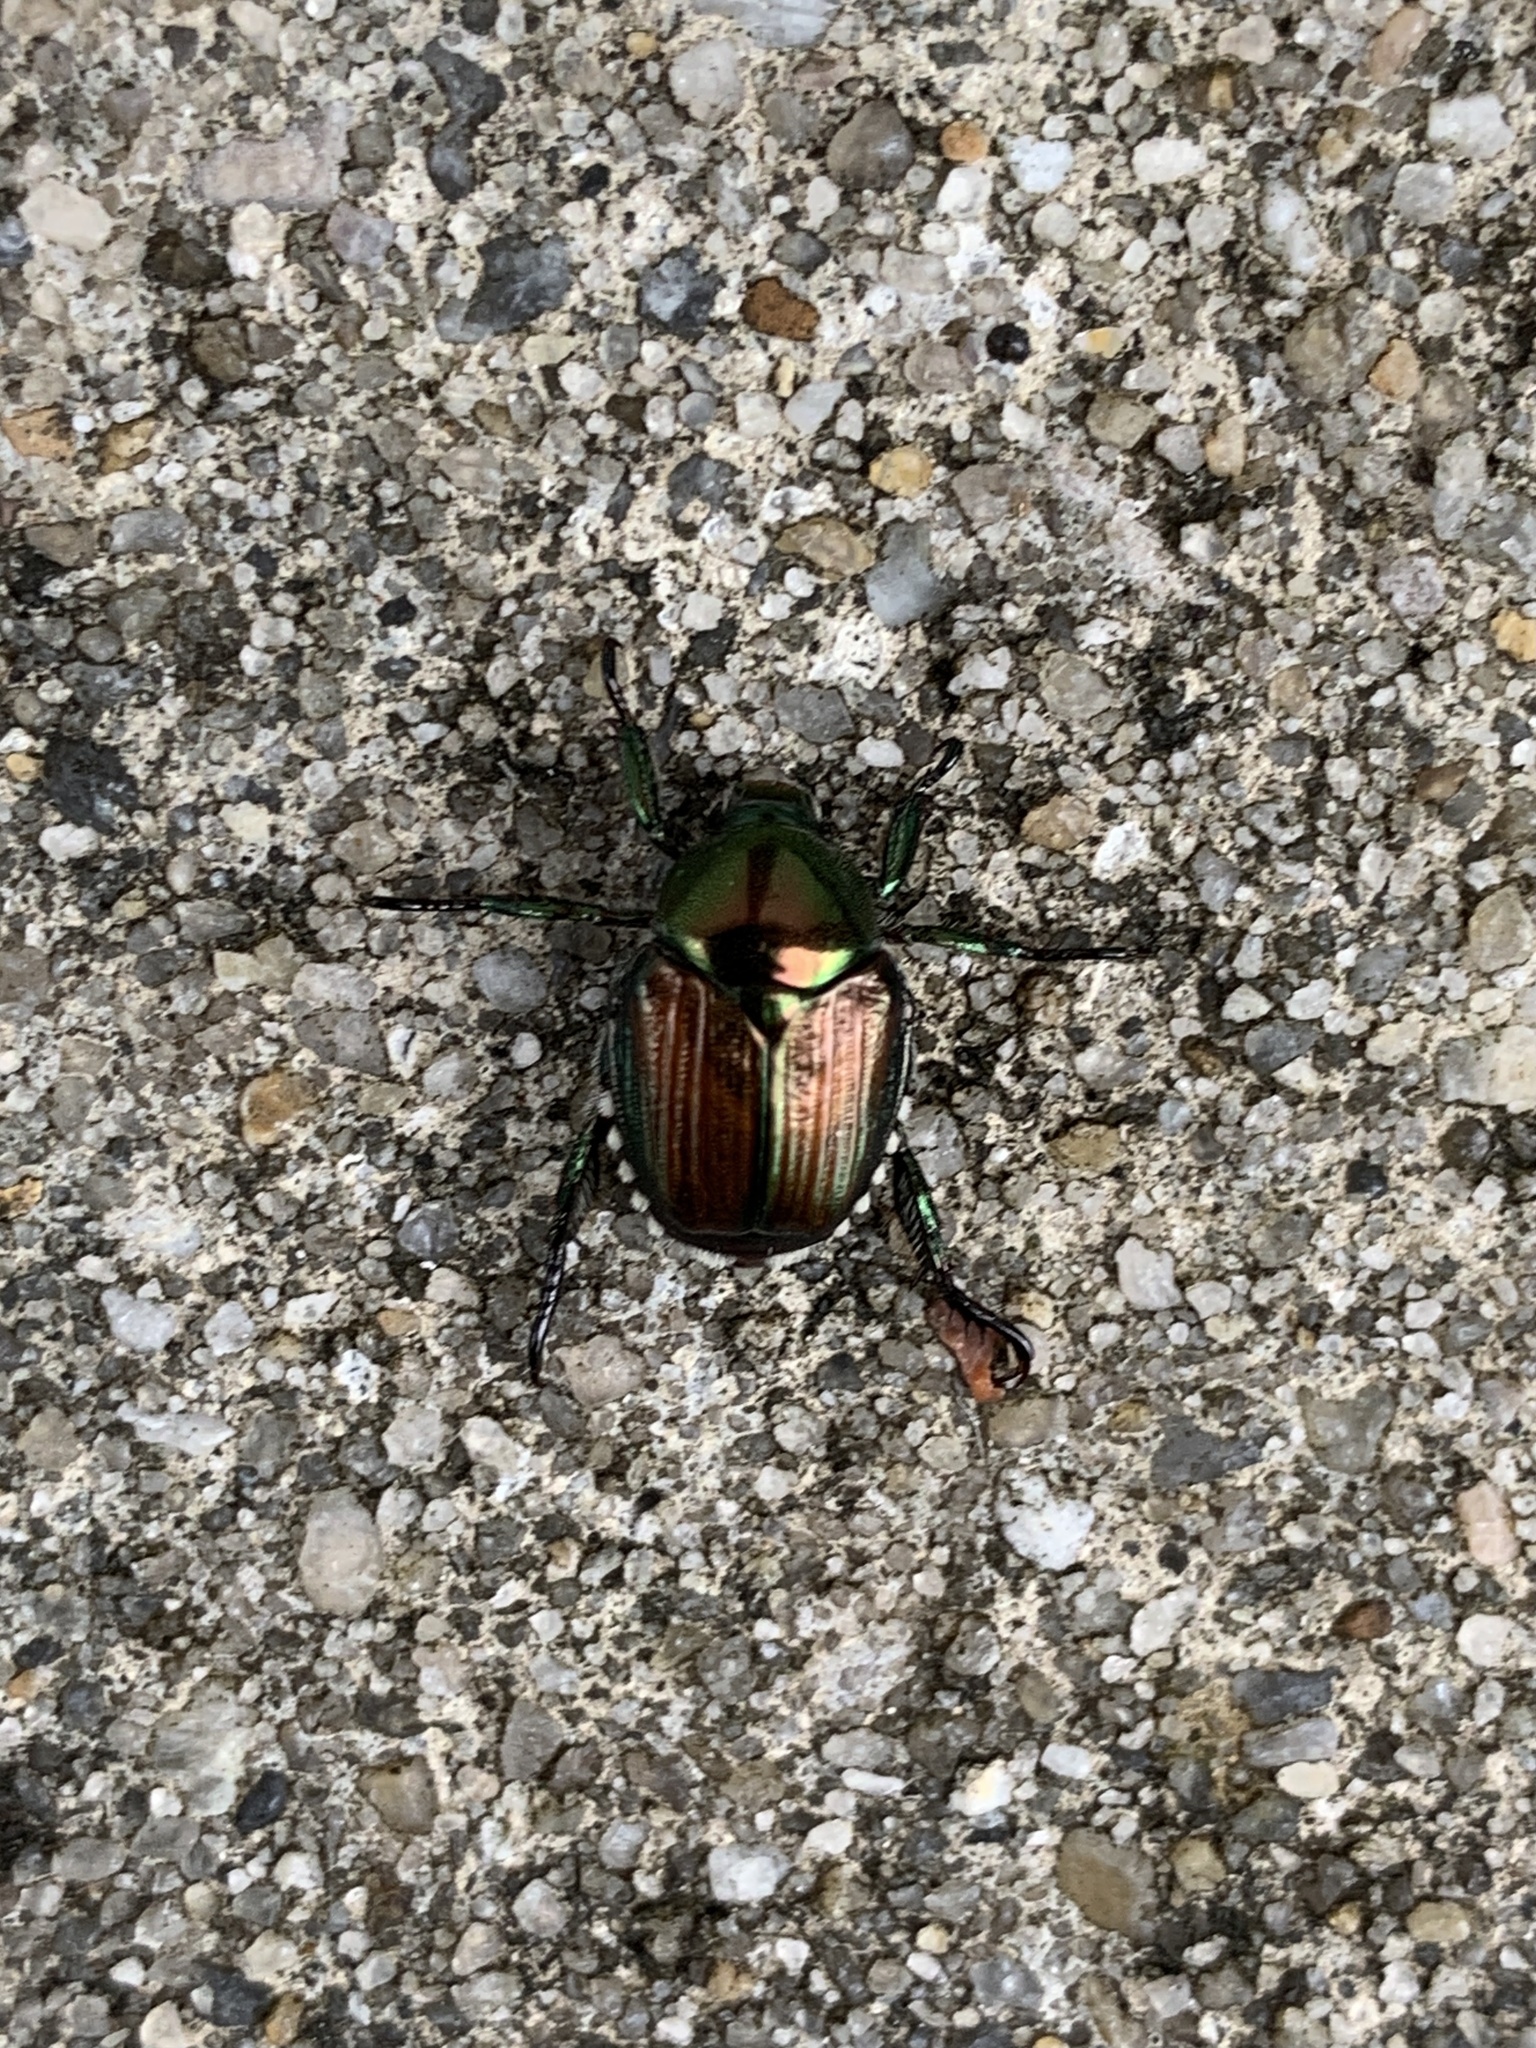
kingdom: Animalia
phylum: Arthropoda
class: Insecta
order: Coleoptera
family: Scarabaeidae
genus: Popillia
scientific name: Popillia japonica
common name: Japanese beetle
